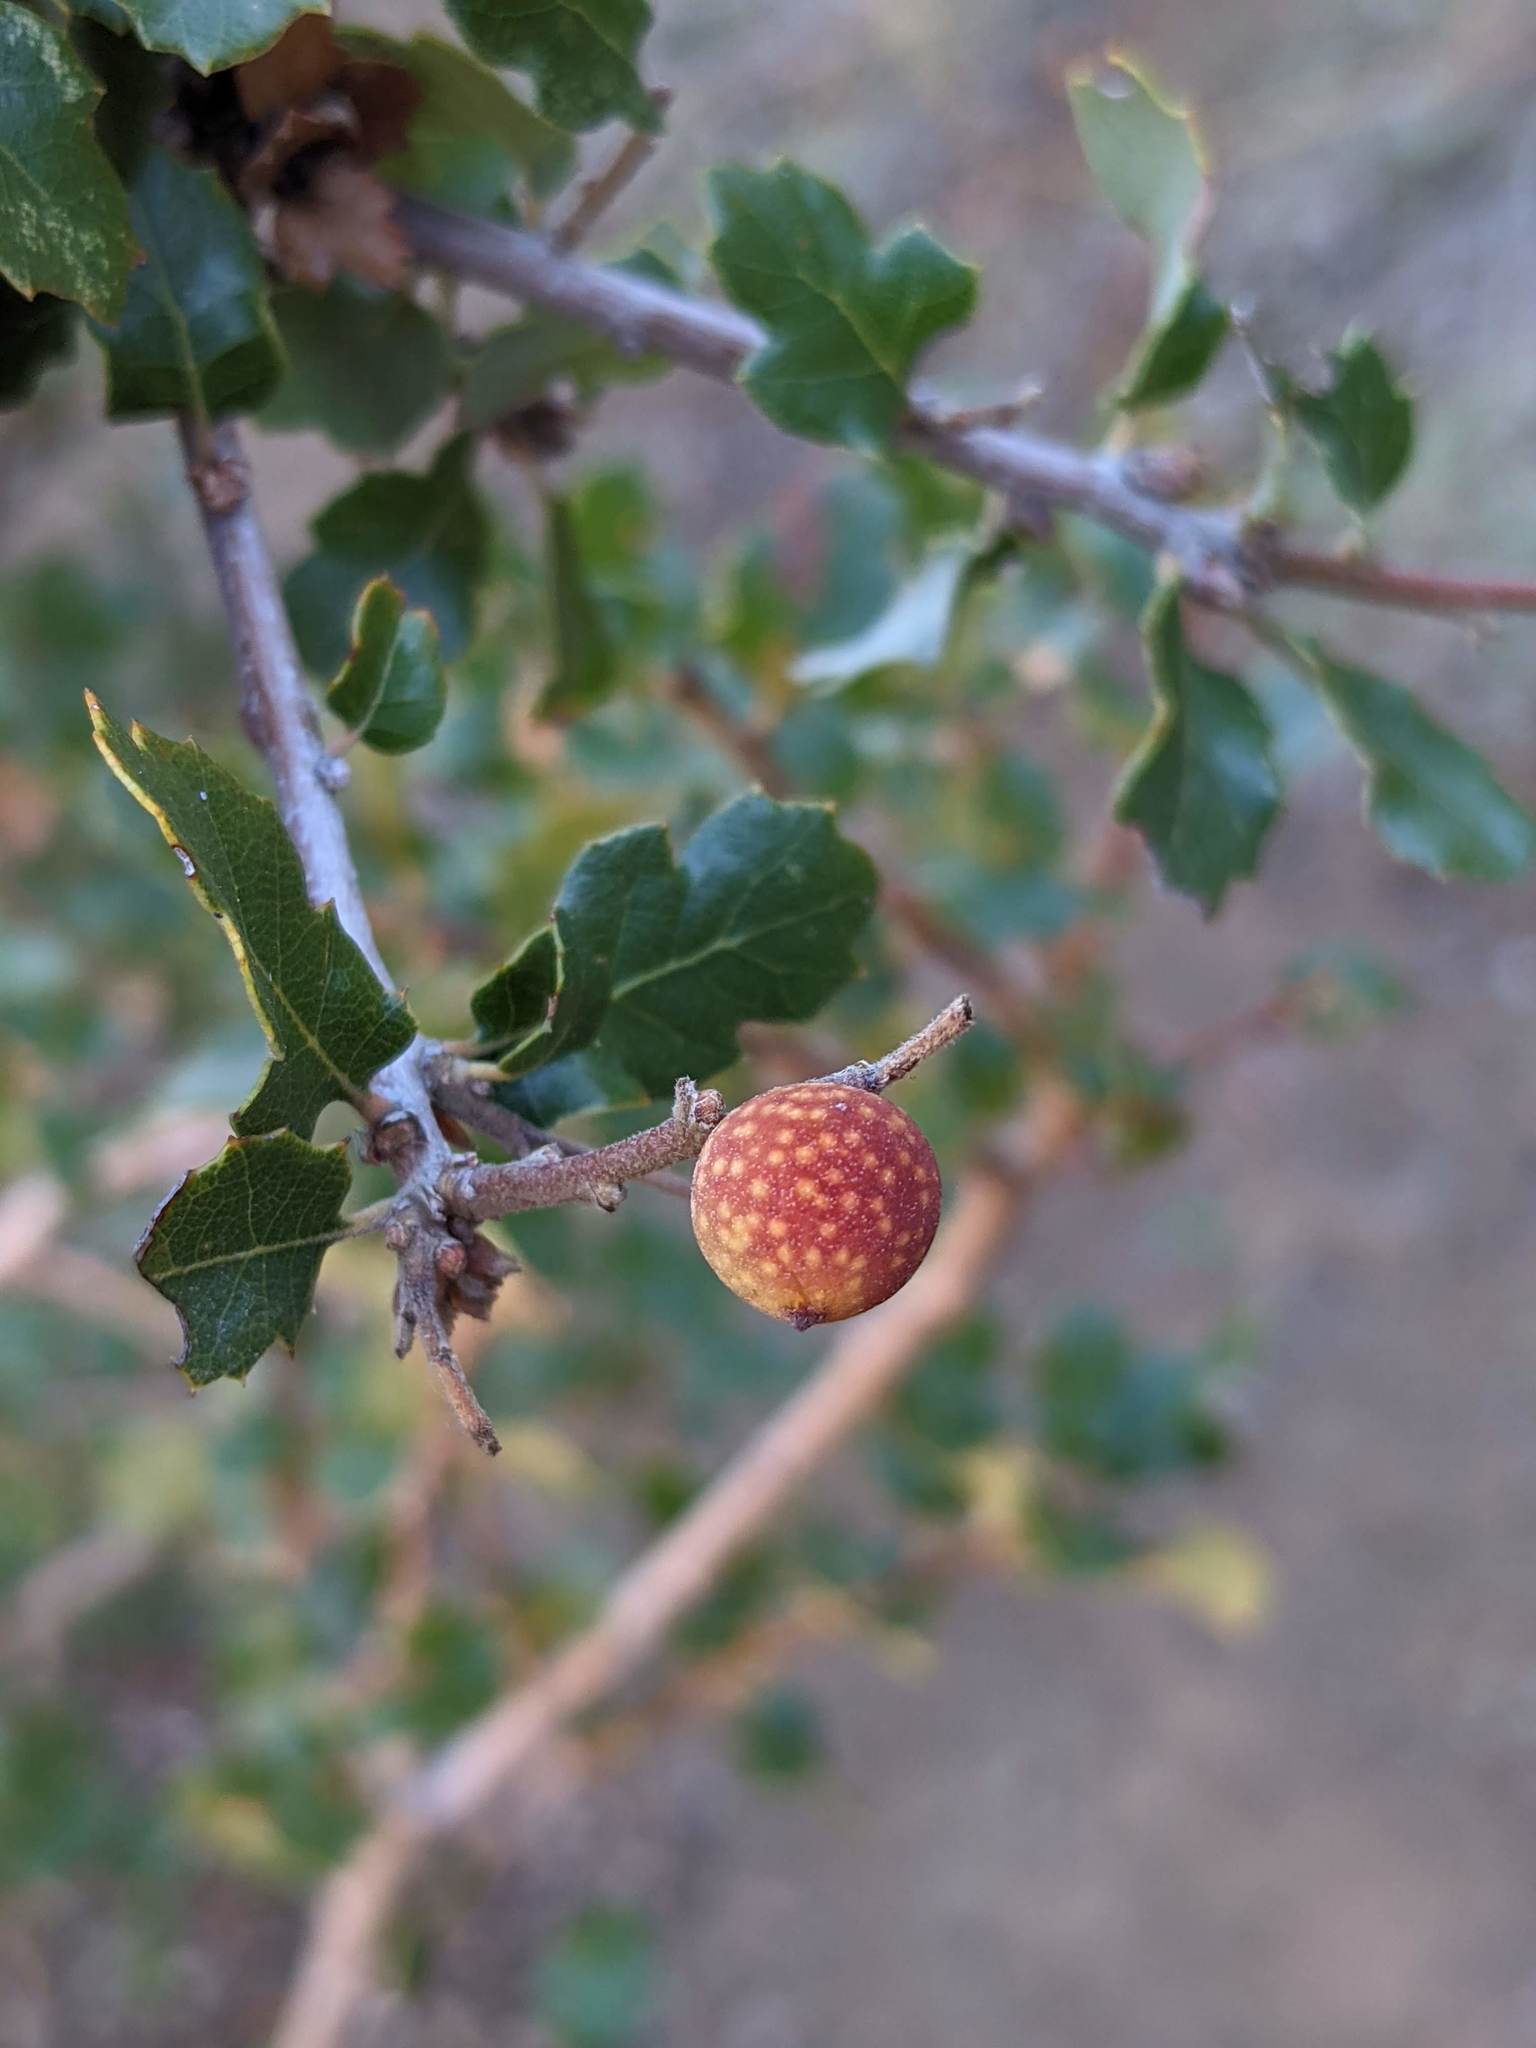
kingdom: Animalia
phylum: Arthropoda
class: Insecta
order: Hymenoptera
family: Cynipidae
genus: Burnettweldia
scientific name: Burnettweldia
